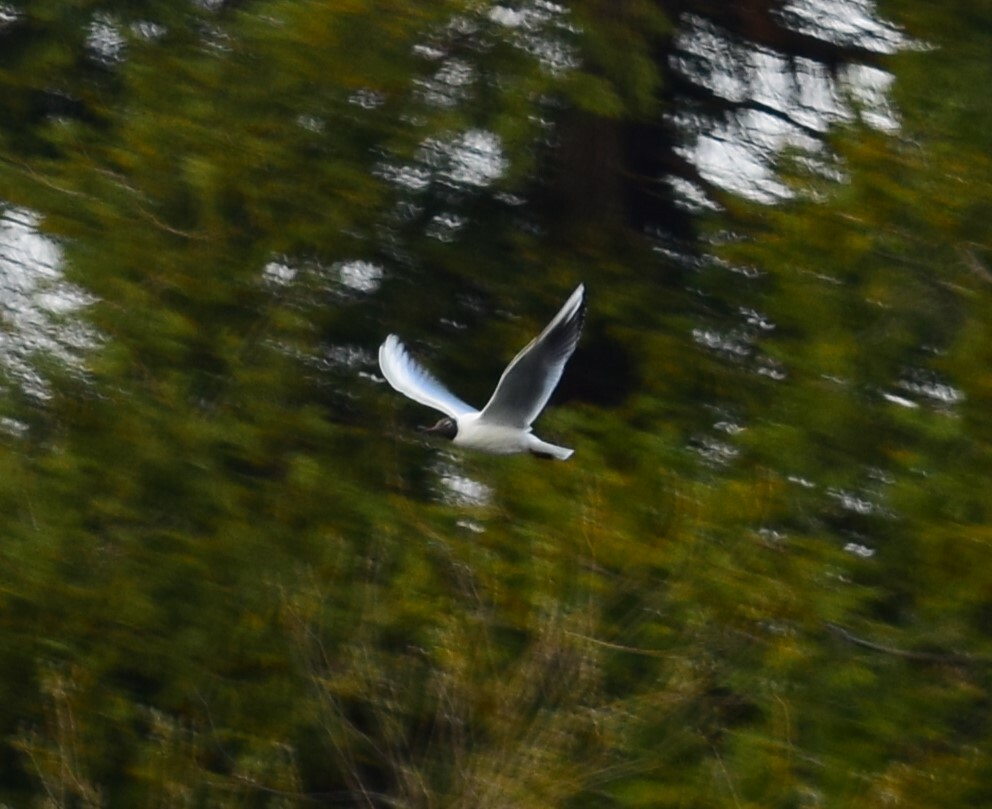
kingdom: Animalia
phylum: Chordata
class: Aves
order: Charadriiformes
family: Laridae
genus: Chroicocephalus
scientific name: Chroicocephalus ridibundus
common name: Black-headed gull
